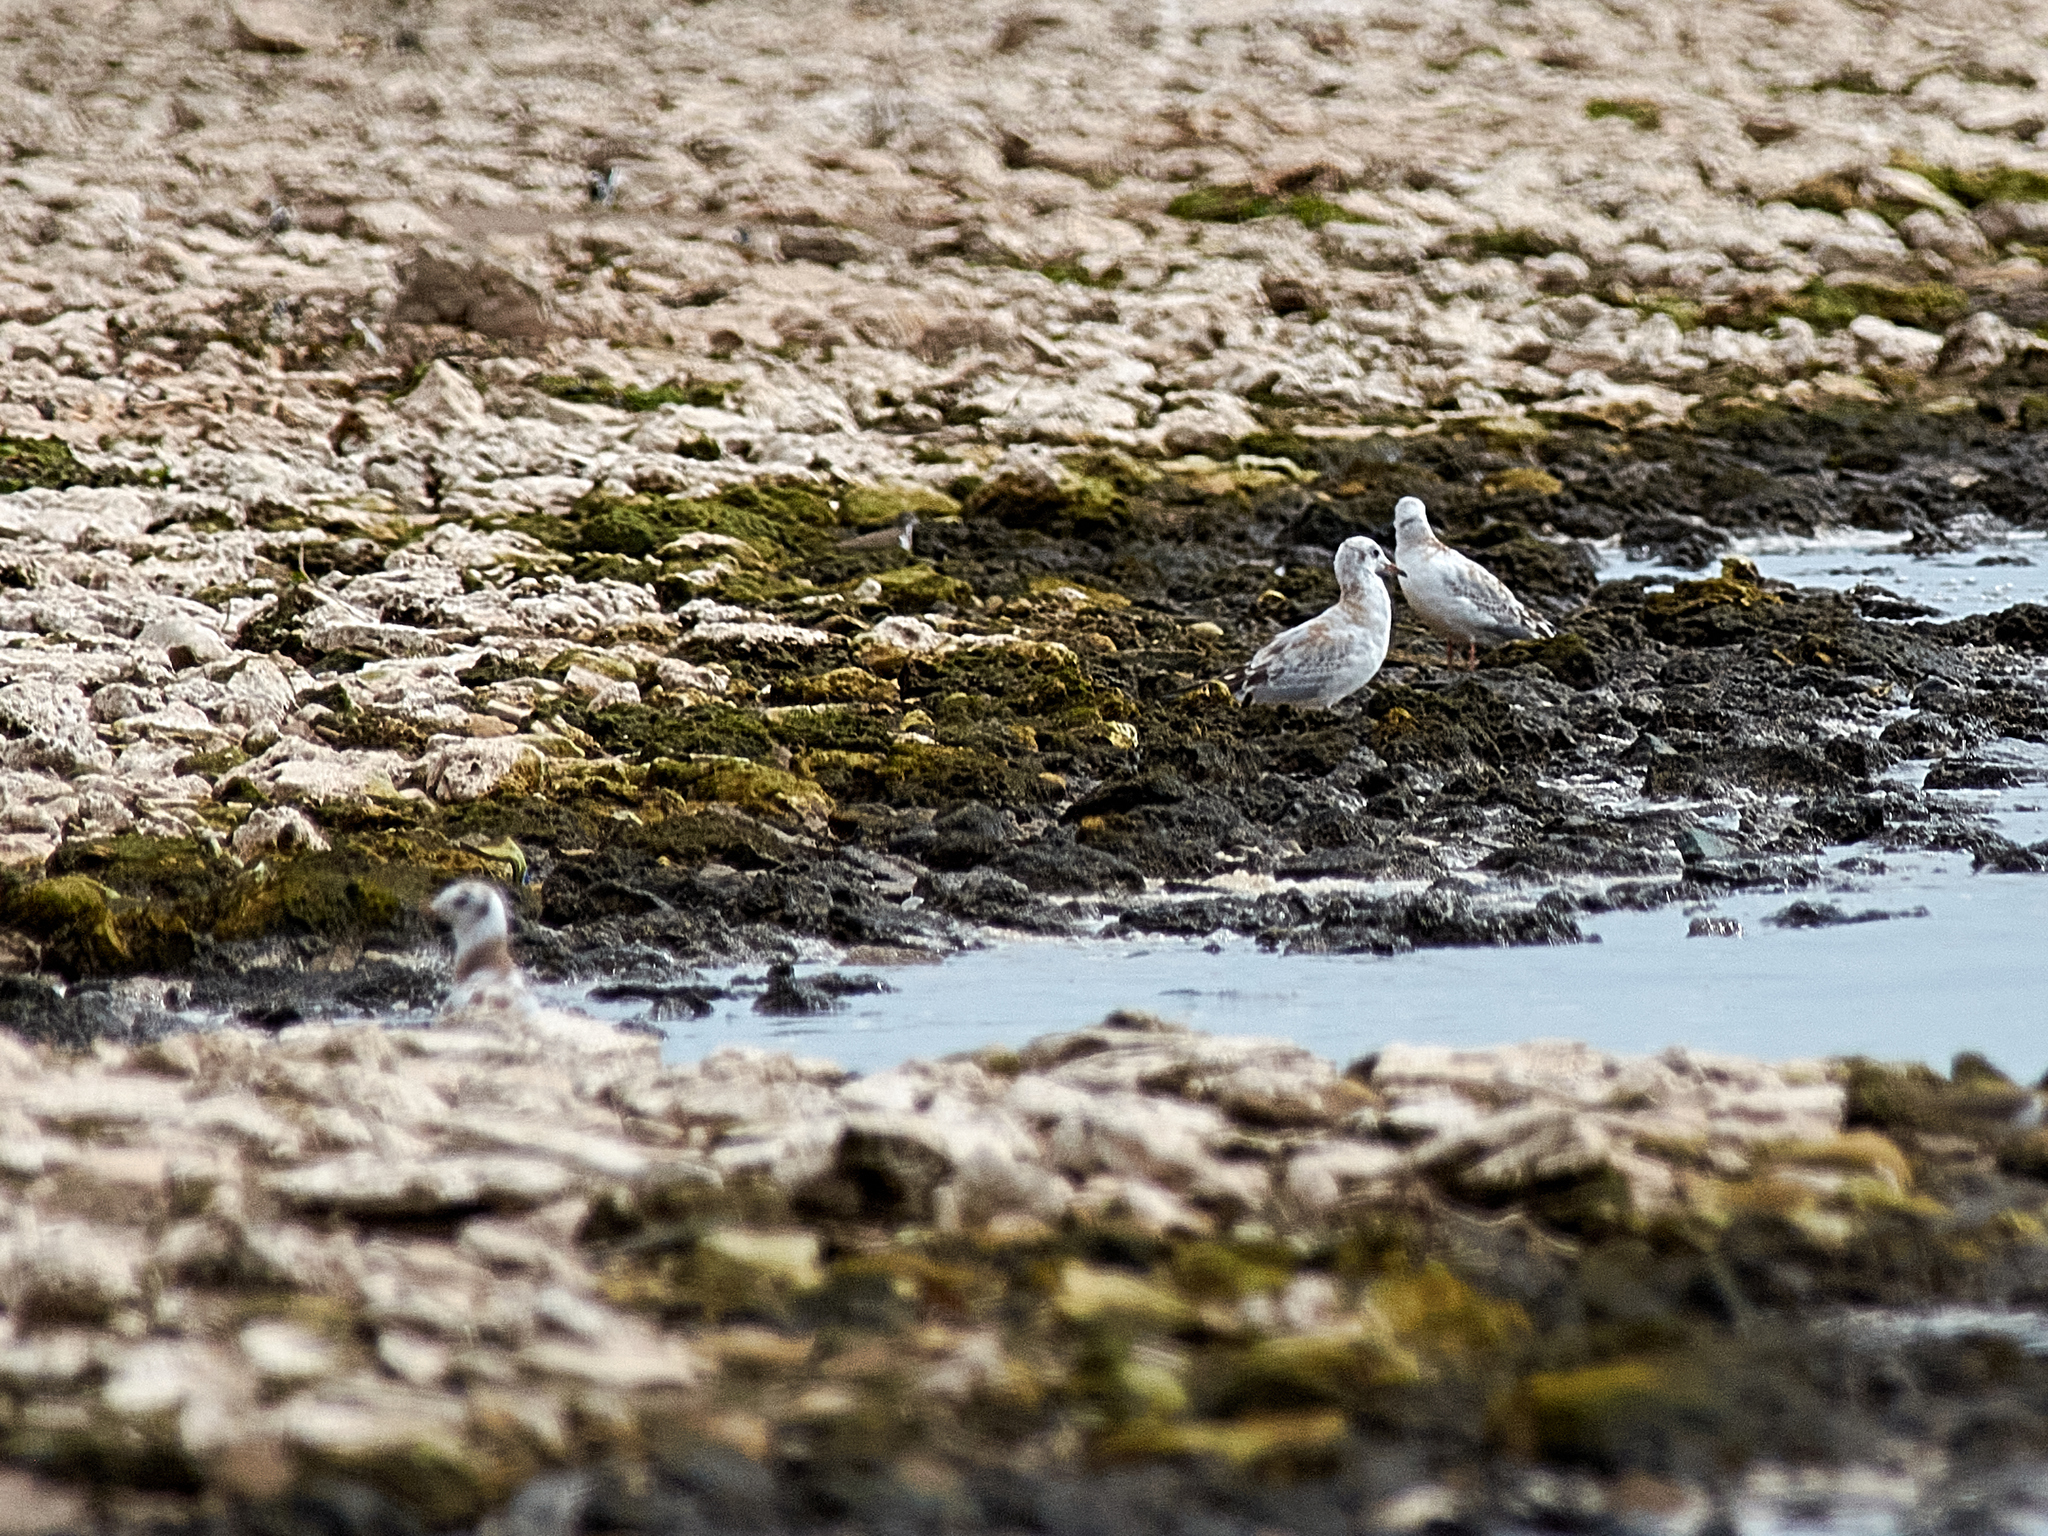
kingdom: Animalia
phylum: Chordata
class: Aves
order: Charadriiformes
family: Laridae
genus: Chroicocephalus
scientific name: Chroicocephalus ridibundus
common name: Black-headed gull
